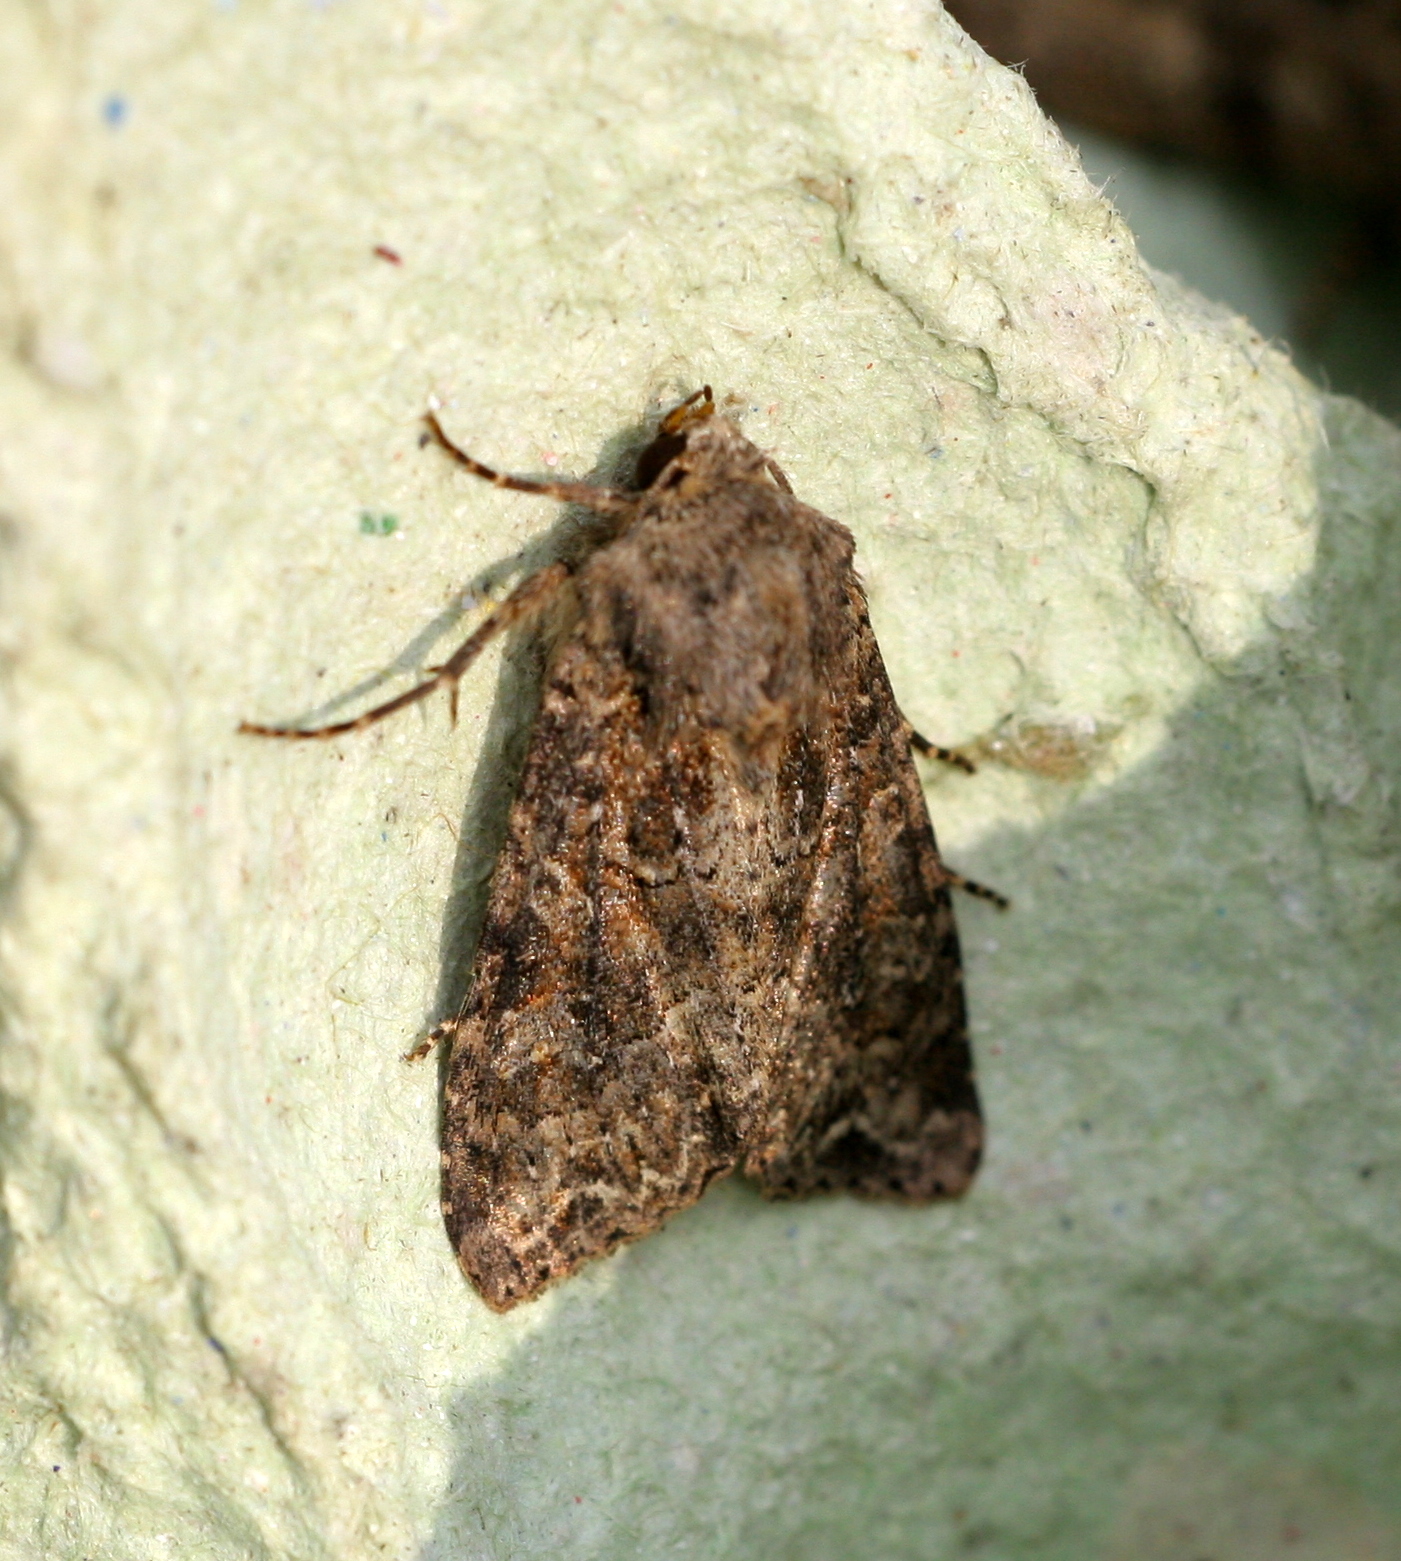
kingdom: Animalia
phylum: Arthropoda
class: Insecta
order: Lepidoptera
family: Noctuidae
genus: Apamea
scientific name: Apamea remissa
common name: Dusky brocade
